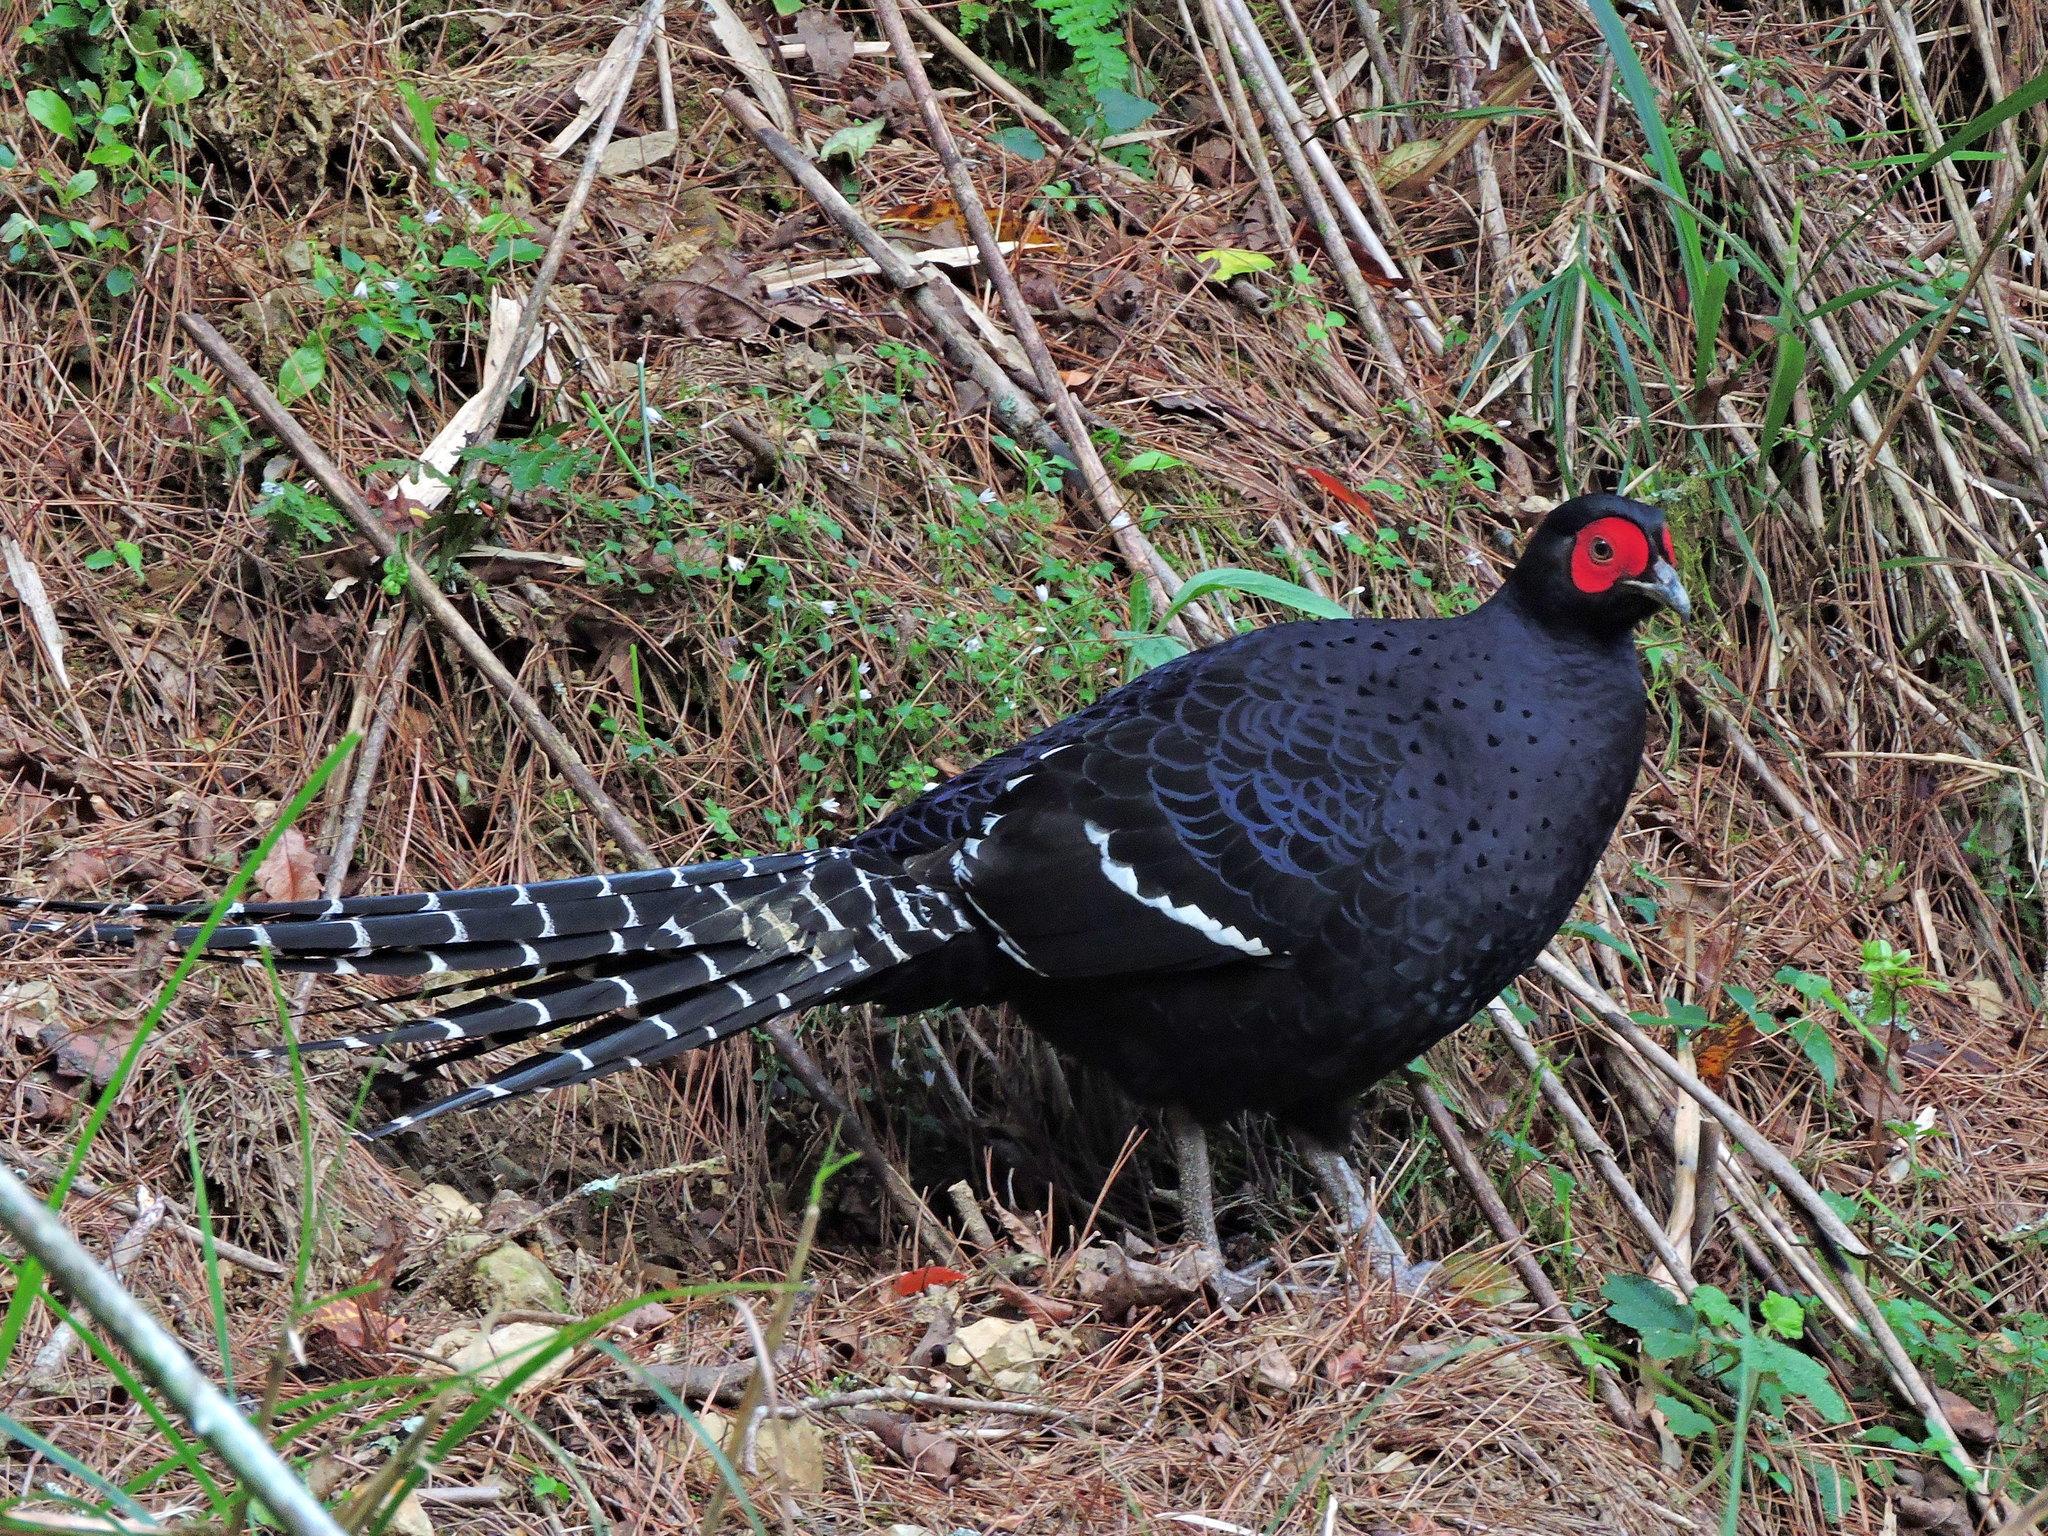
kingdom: Animalia
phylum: Chordata
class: Aves
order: Galliformes
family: Phasianidae
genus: Syrmaticus
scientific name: Syrmaticus mikado
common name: Mikado pheasant
